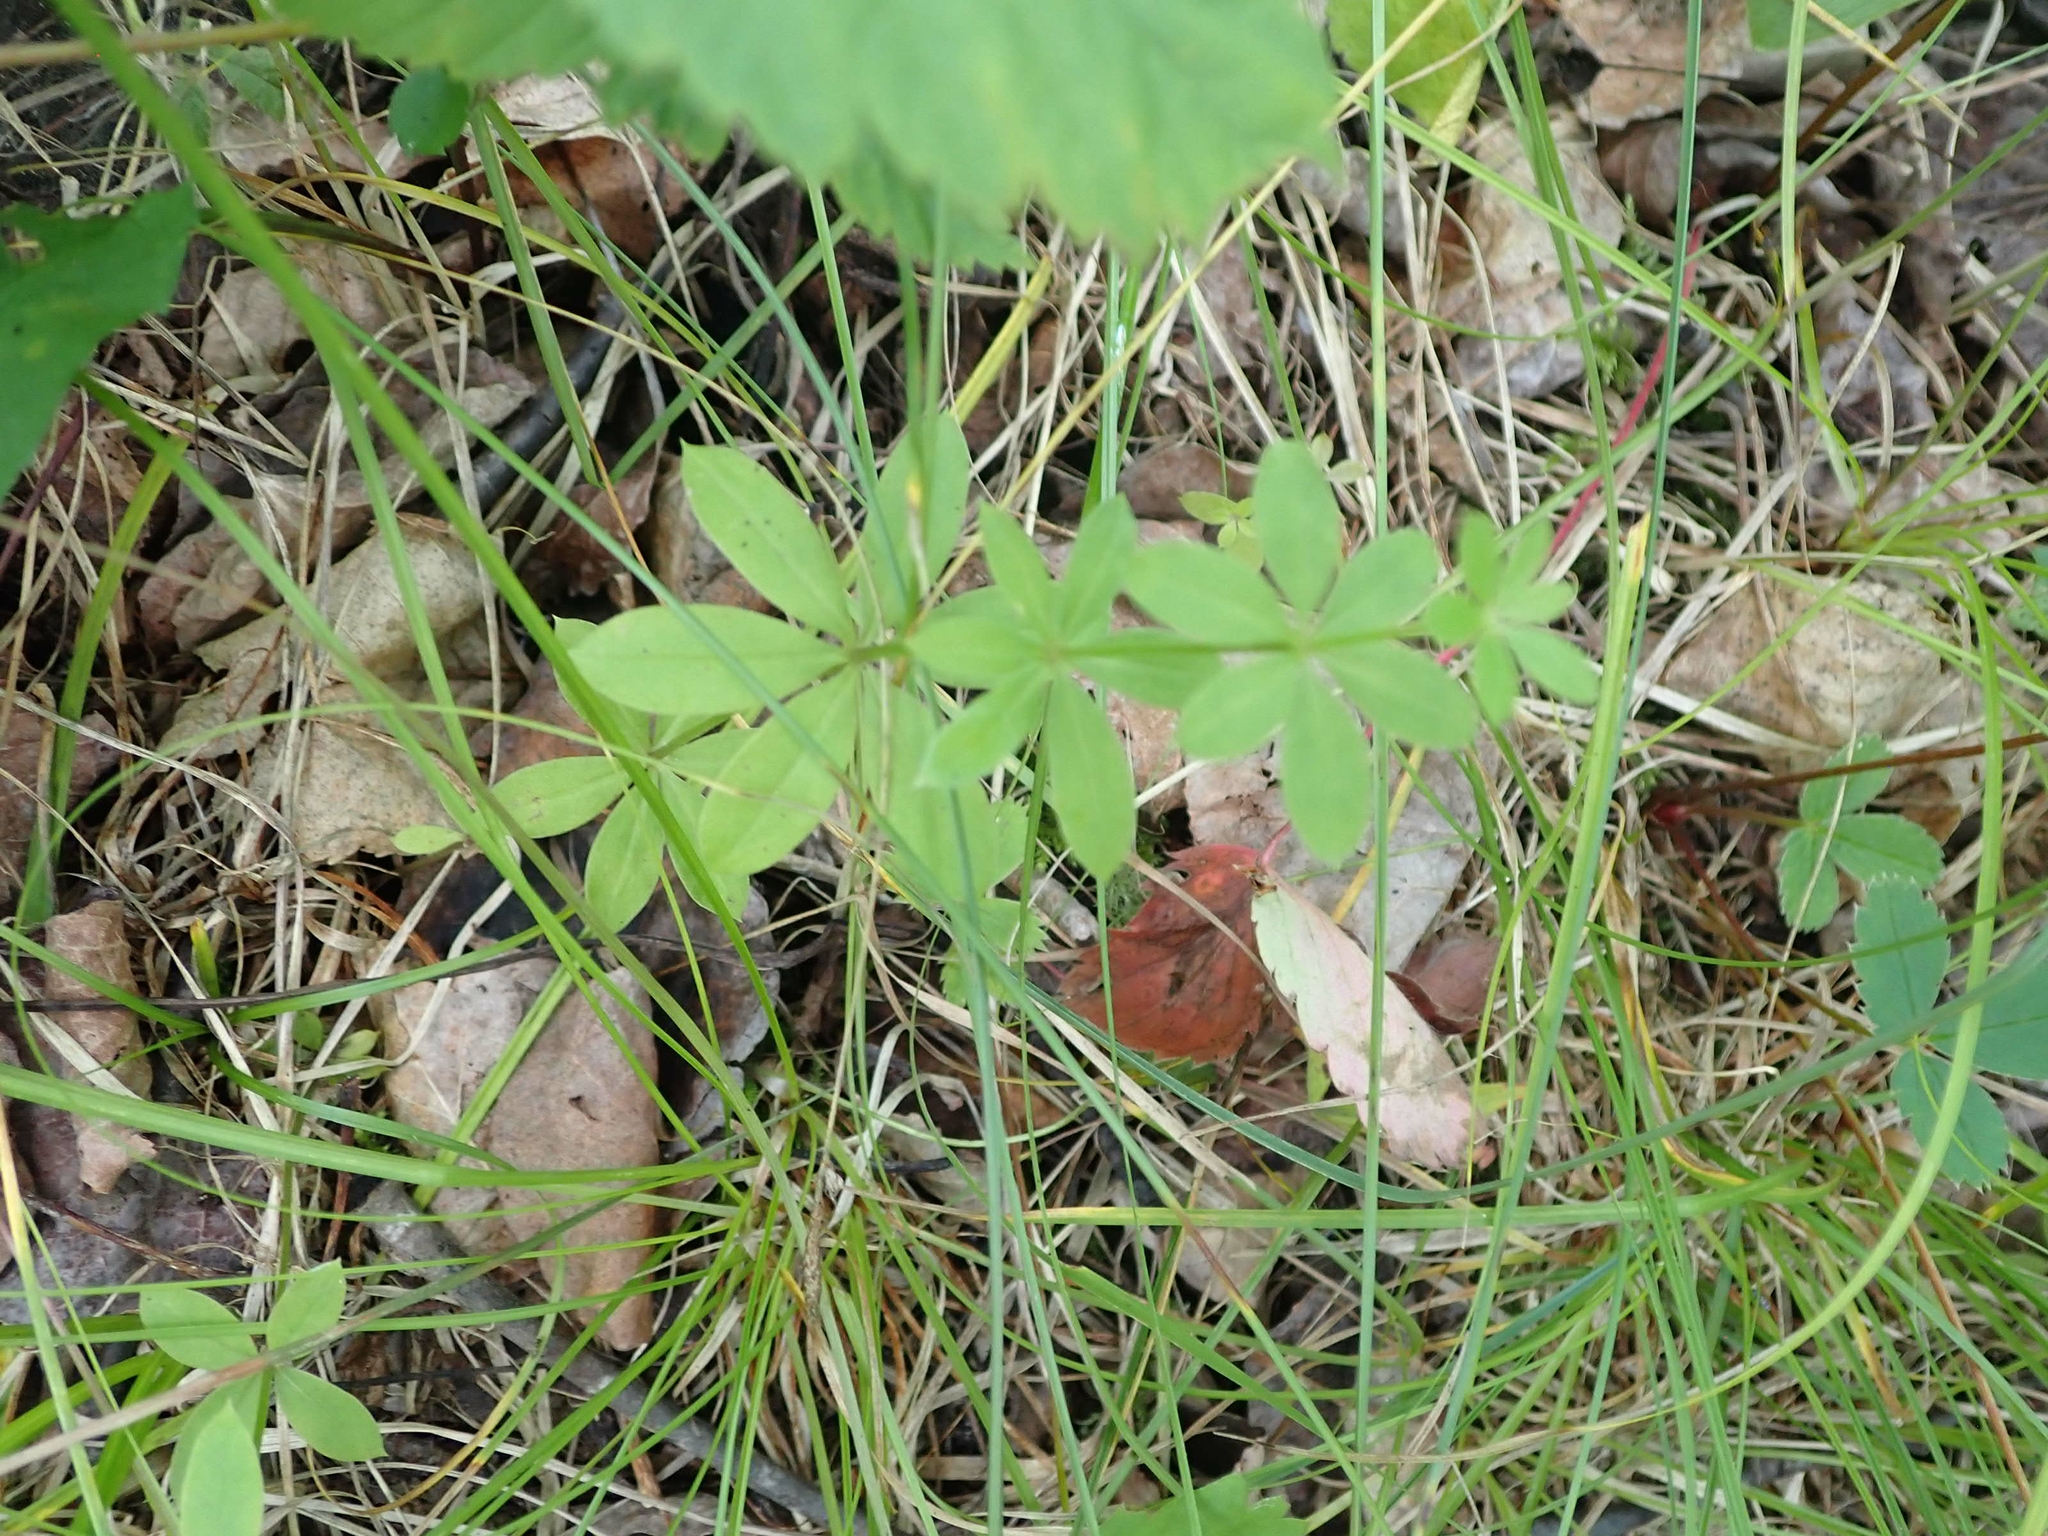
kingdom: Plantae
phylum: Tracheophyta
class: Magnoliopsida
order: Gentianales
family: Rubiaceae
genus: Galium
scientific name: Galium triflorum
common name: Fragrant bedstraw
